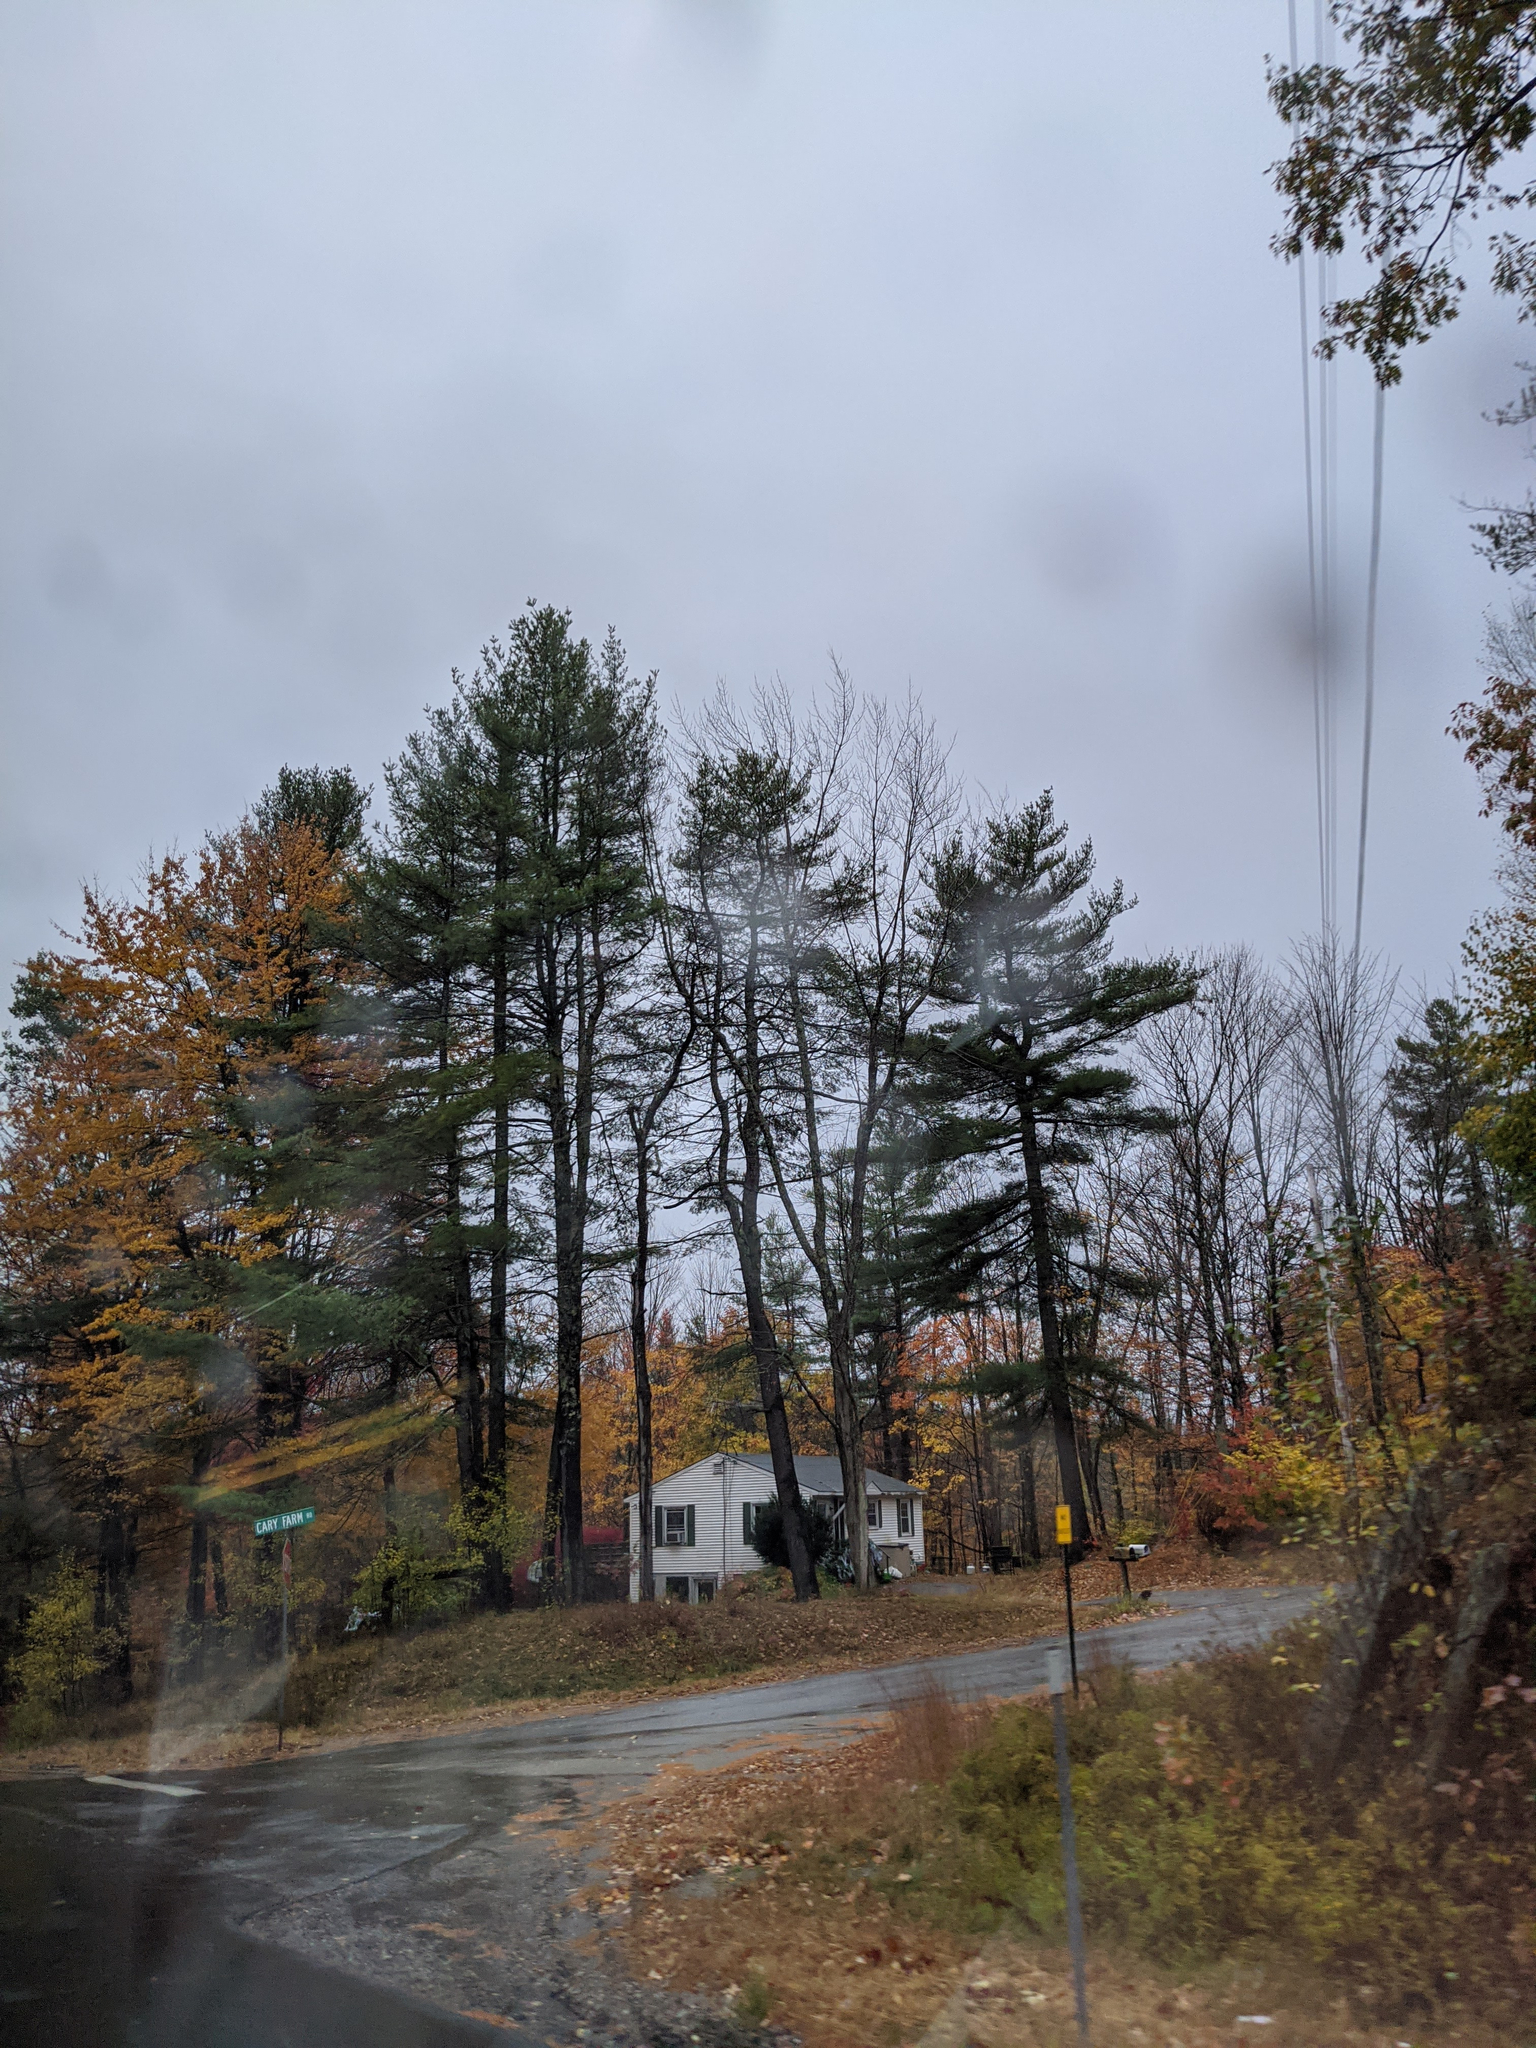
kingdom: Plantae
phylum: Tracheophyta
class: Pinopsida
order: Pinales
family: Pinaceae
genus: Pinus
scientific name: Pinus strobus
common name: Weymouth pine
